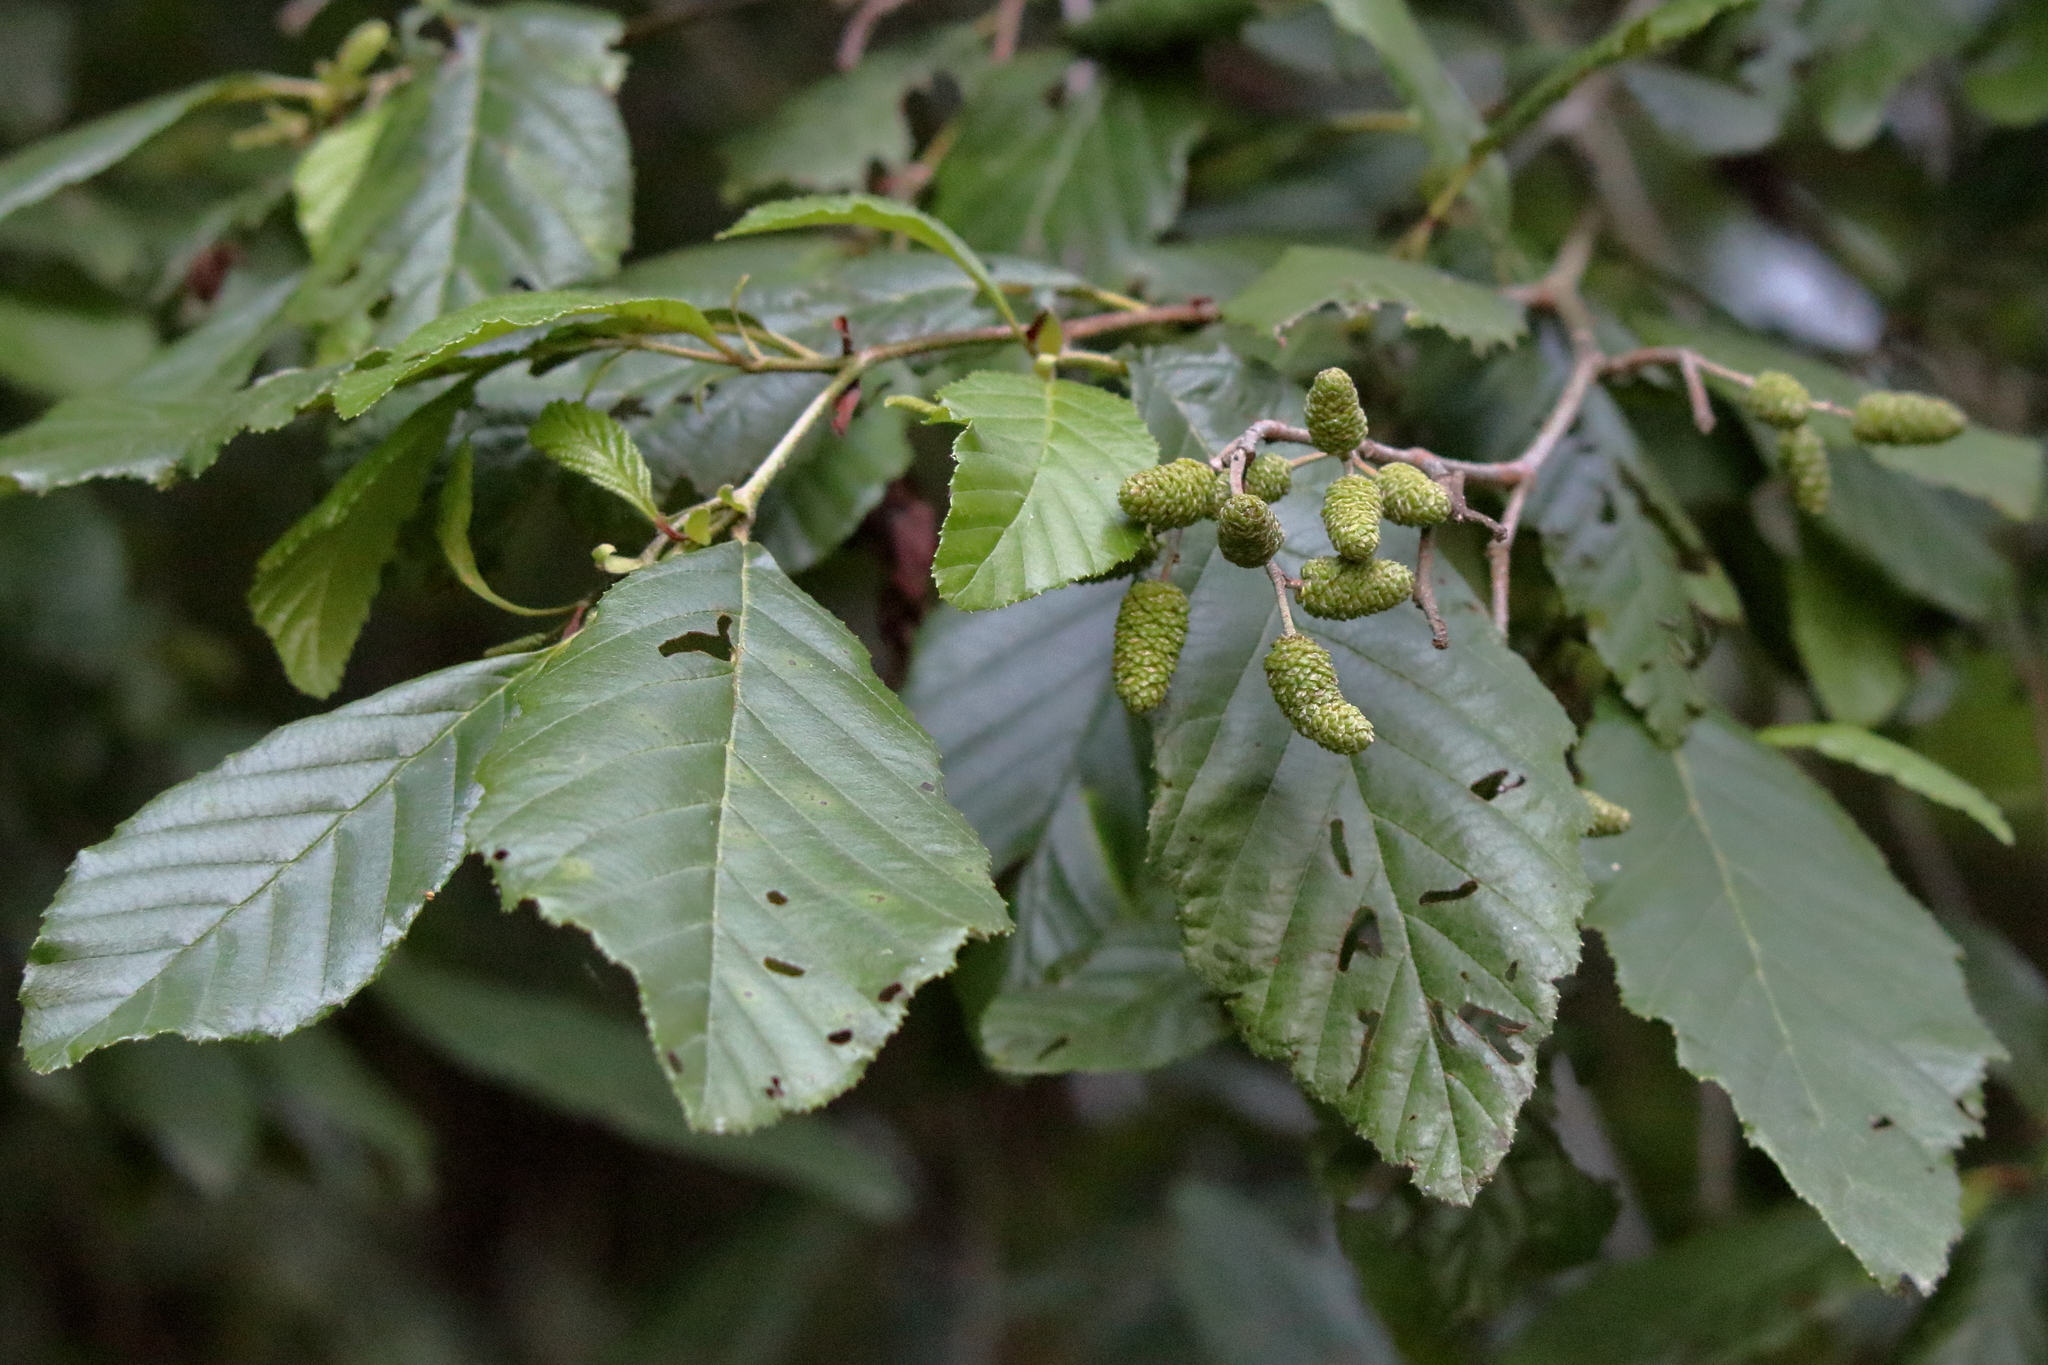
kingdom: Plantae
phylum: Tracheophyta
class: Magnoliopsida
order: Fagales
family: Betulaceae
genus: Alnus
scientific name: Alnus serrulata
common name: Hazel alder
